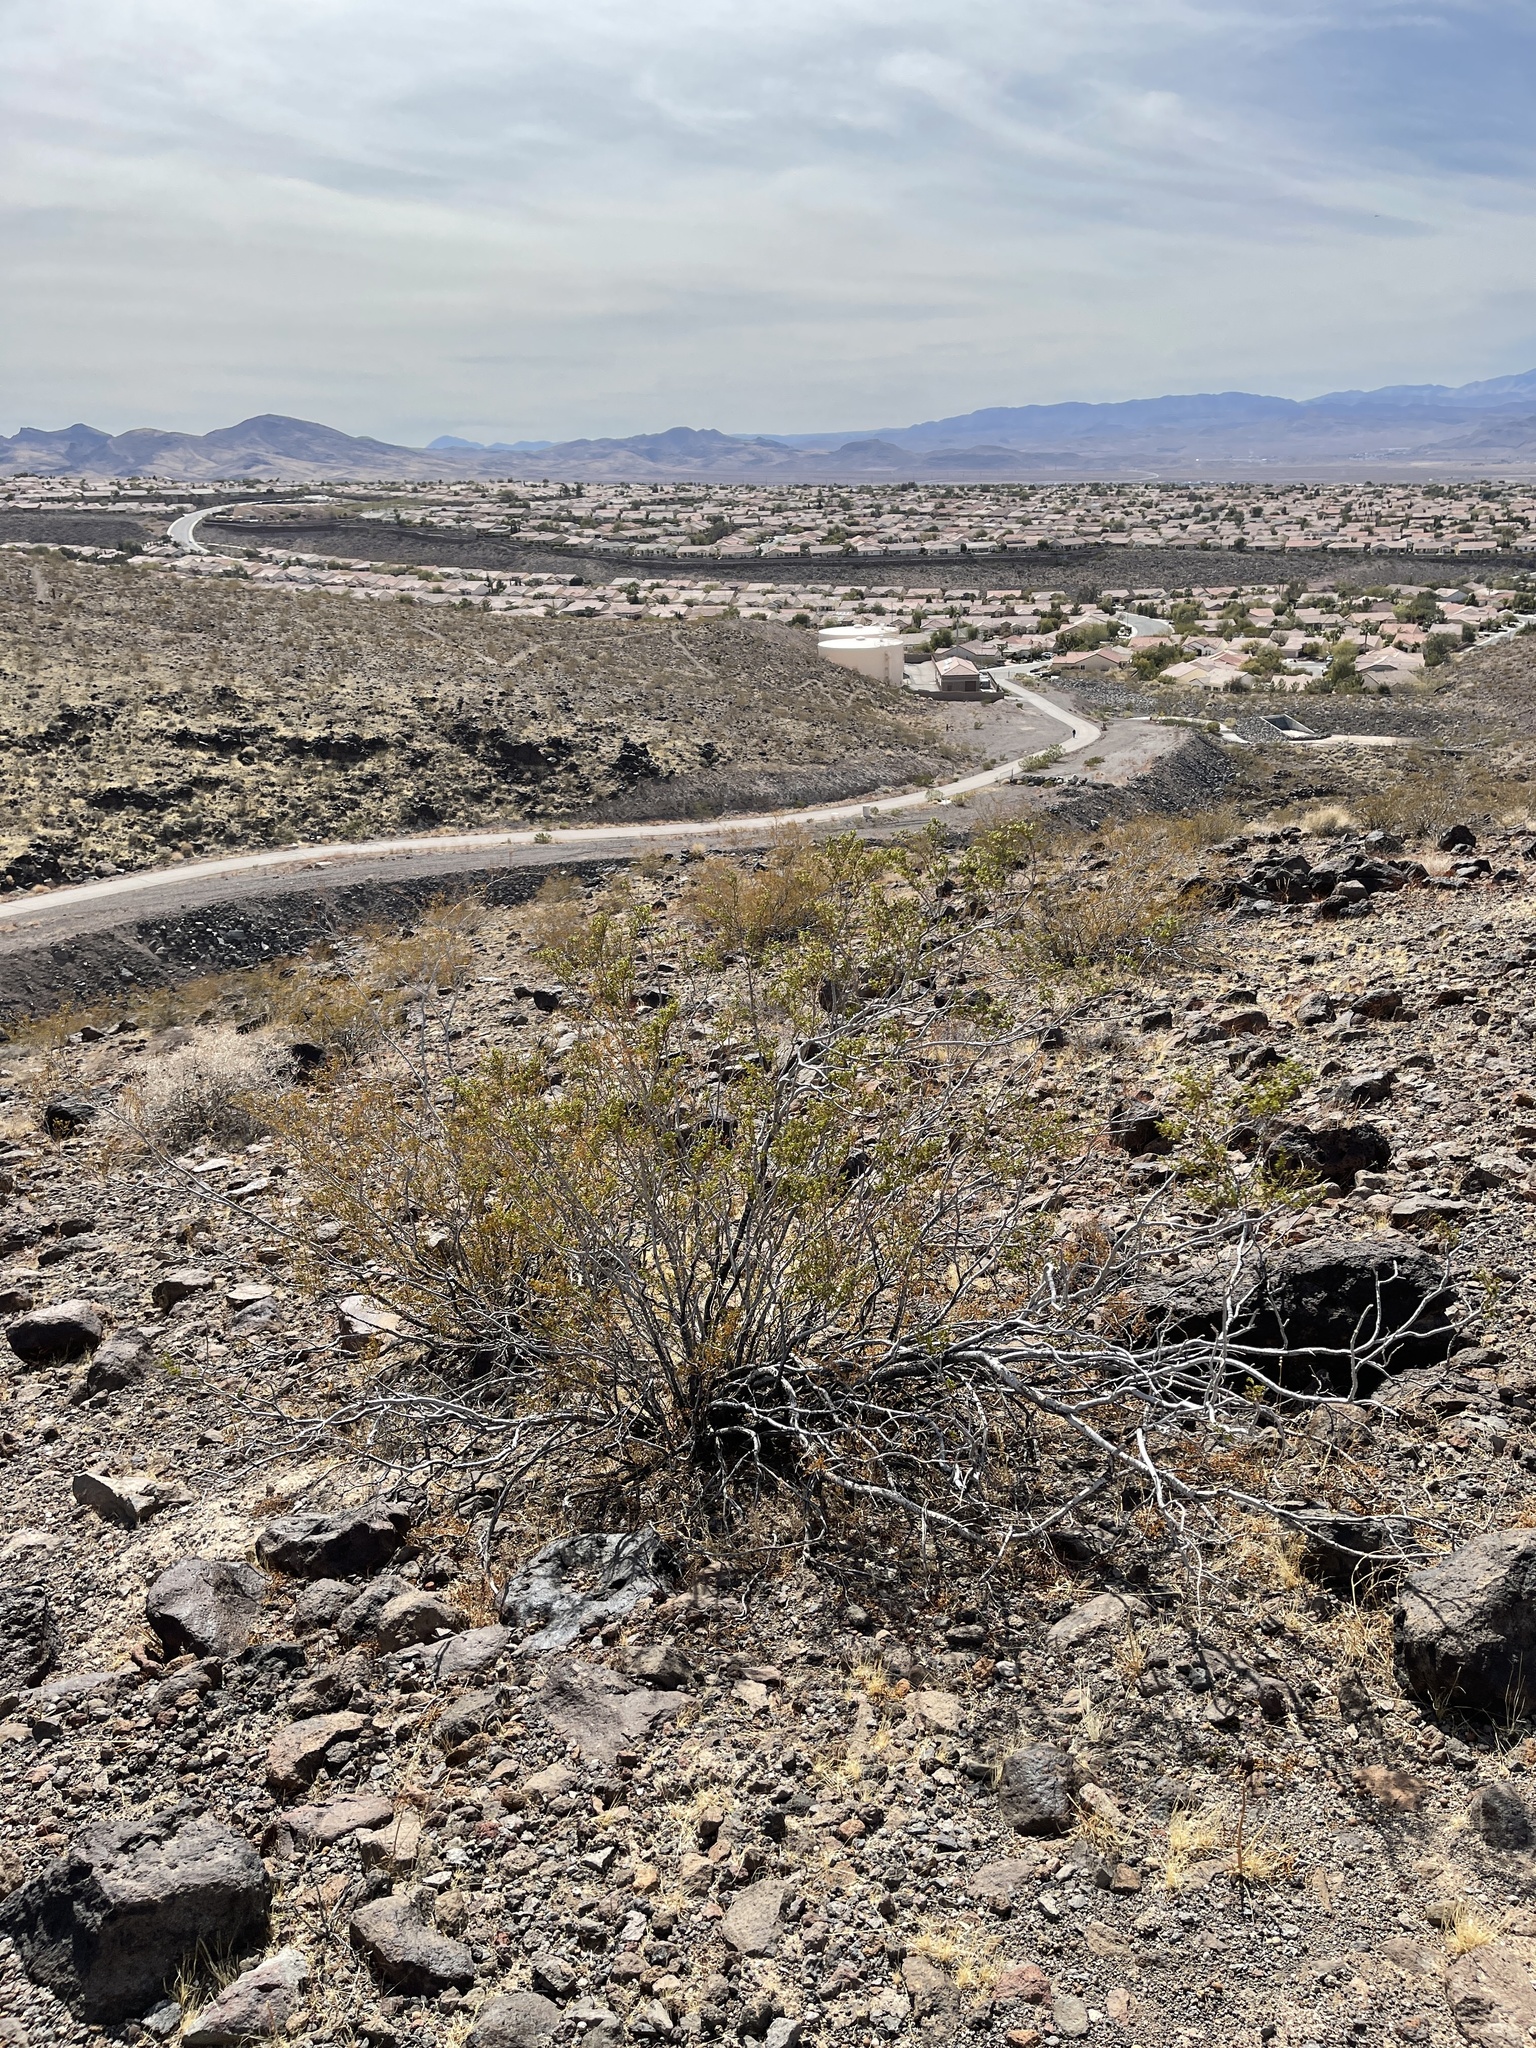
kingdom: Plantae
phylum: Tracheophyta
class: Magnoliopsida
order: Zygophyllales
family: Zygophyllaceae
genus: Larrea
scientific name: Larrea tridentata
